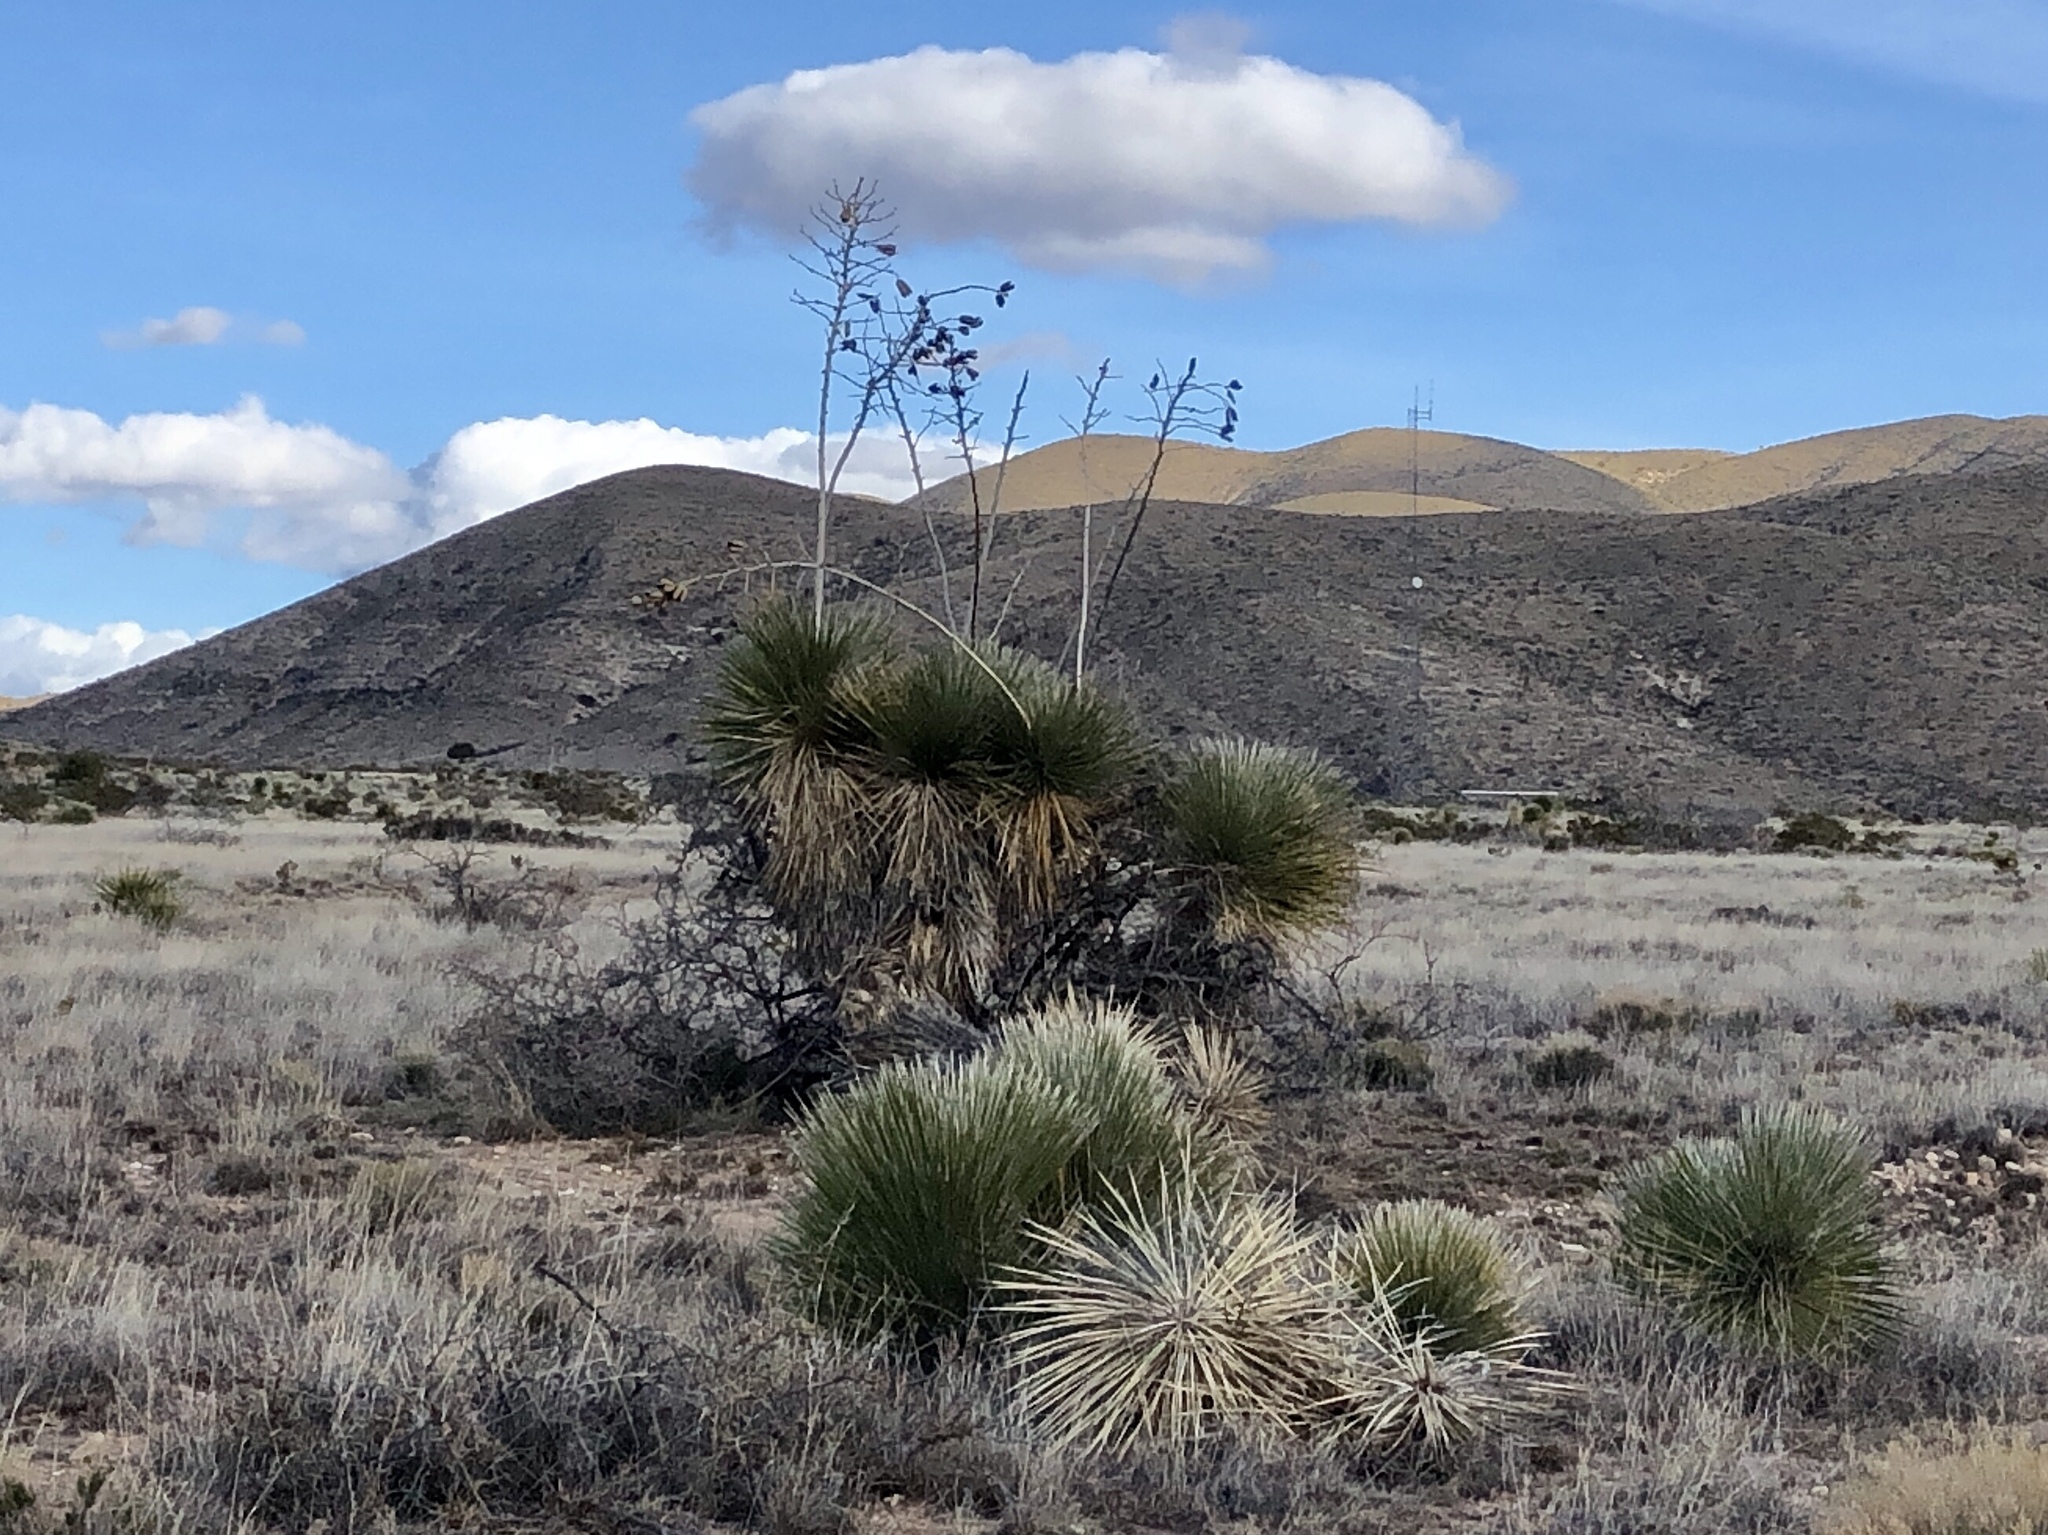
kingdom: Plantae
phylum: Tracheophyta
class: Liliopsida
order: Asparagales
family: Asparagaceae
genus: Yucca
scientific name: Yucca elata
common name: Palmella
